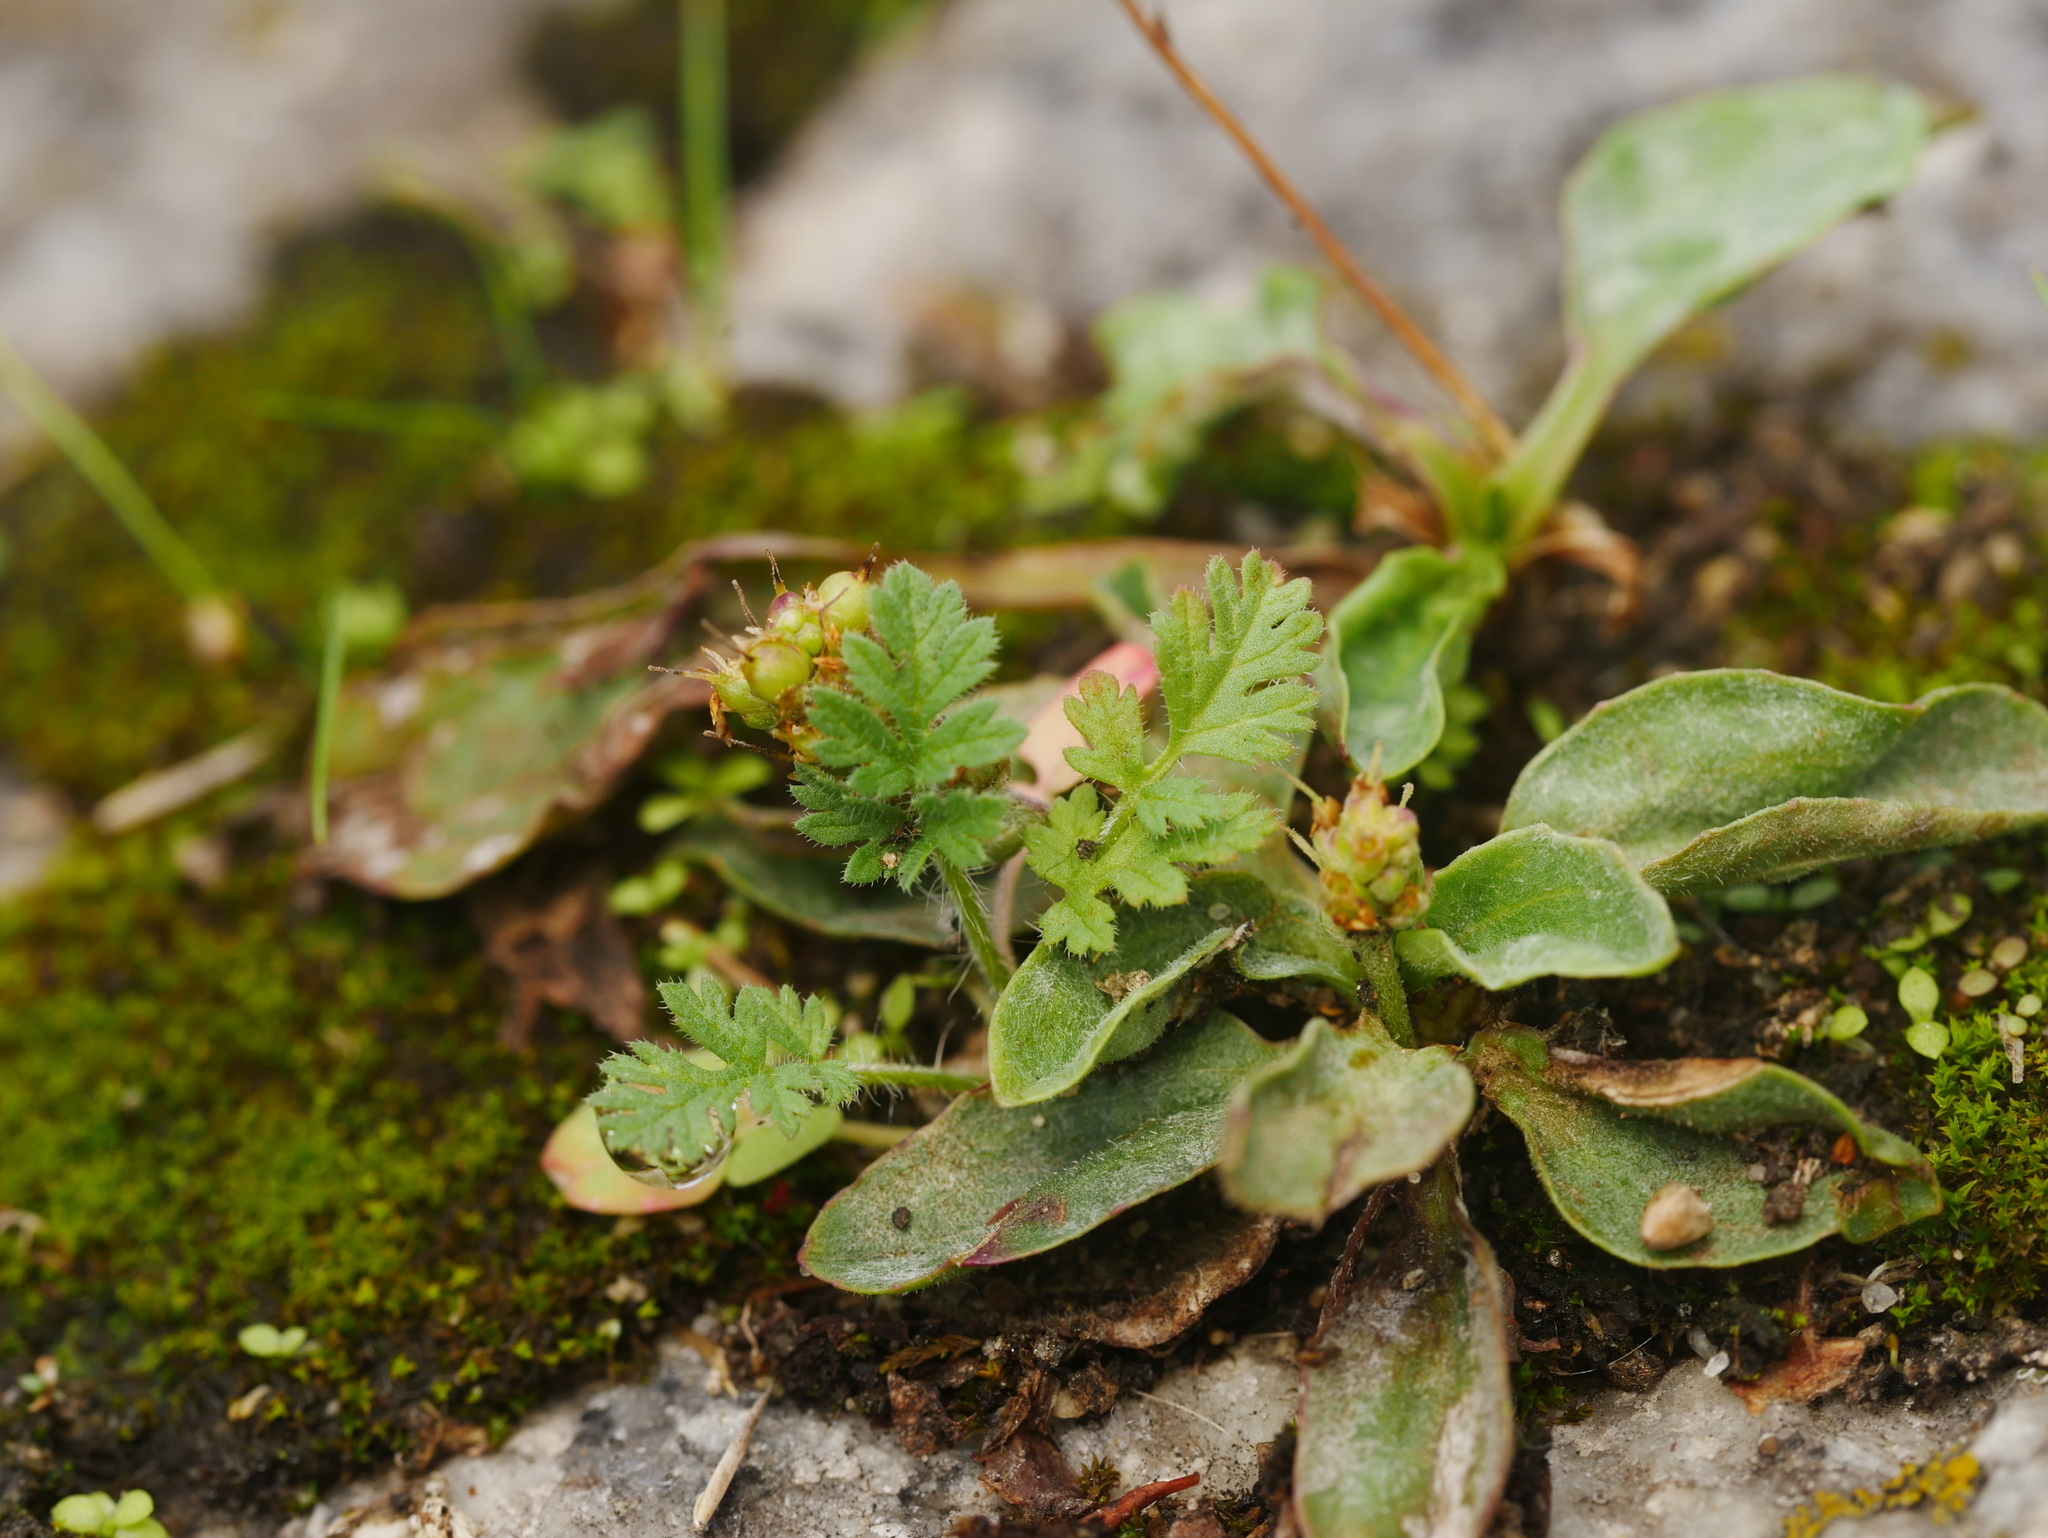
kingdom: Plantae
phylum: Tracheophyta
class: Magnoliopsida
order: Geraniales
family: Geraniaceae
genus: Erodium
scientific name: Erodium cicutarium
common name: Common stork's-bill
